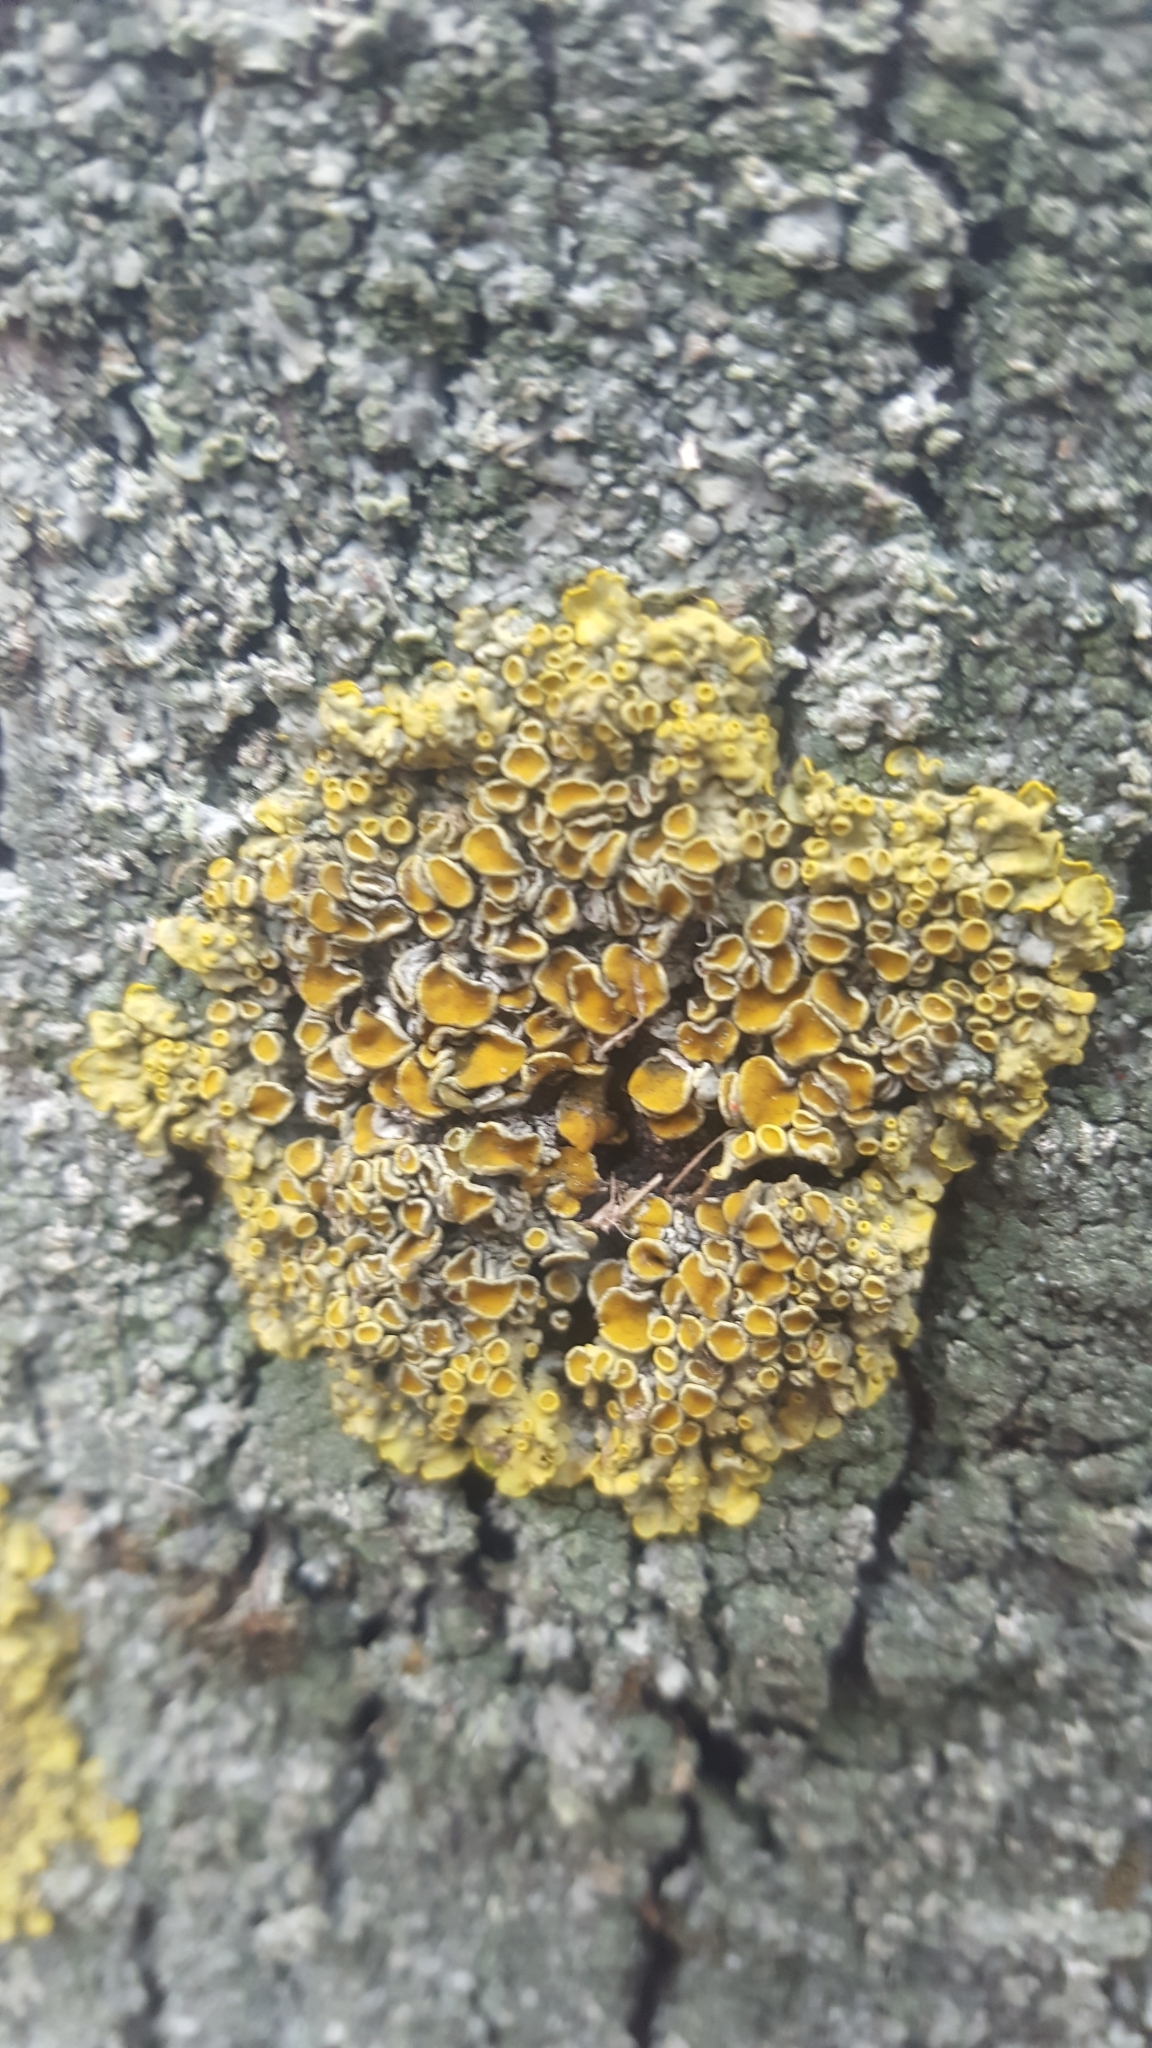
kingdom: Fungi
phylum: Ascomycota
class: Lecanoromycetes
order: Teloschistales
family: Teloschistaceae
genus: Xanthoria
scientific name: Xanthoria parietina
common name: Common orange lichen
